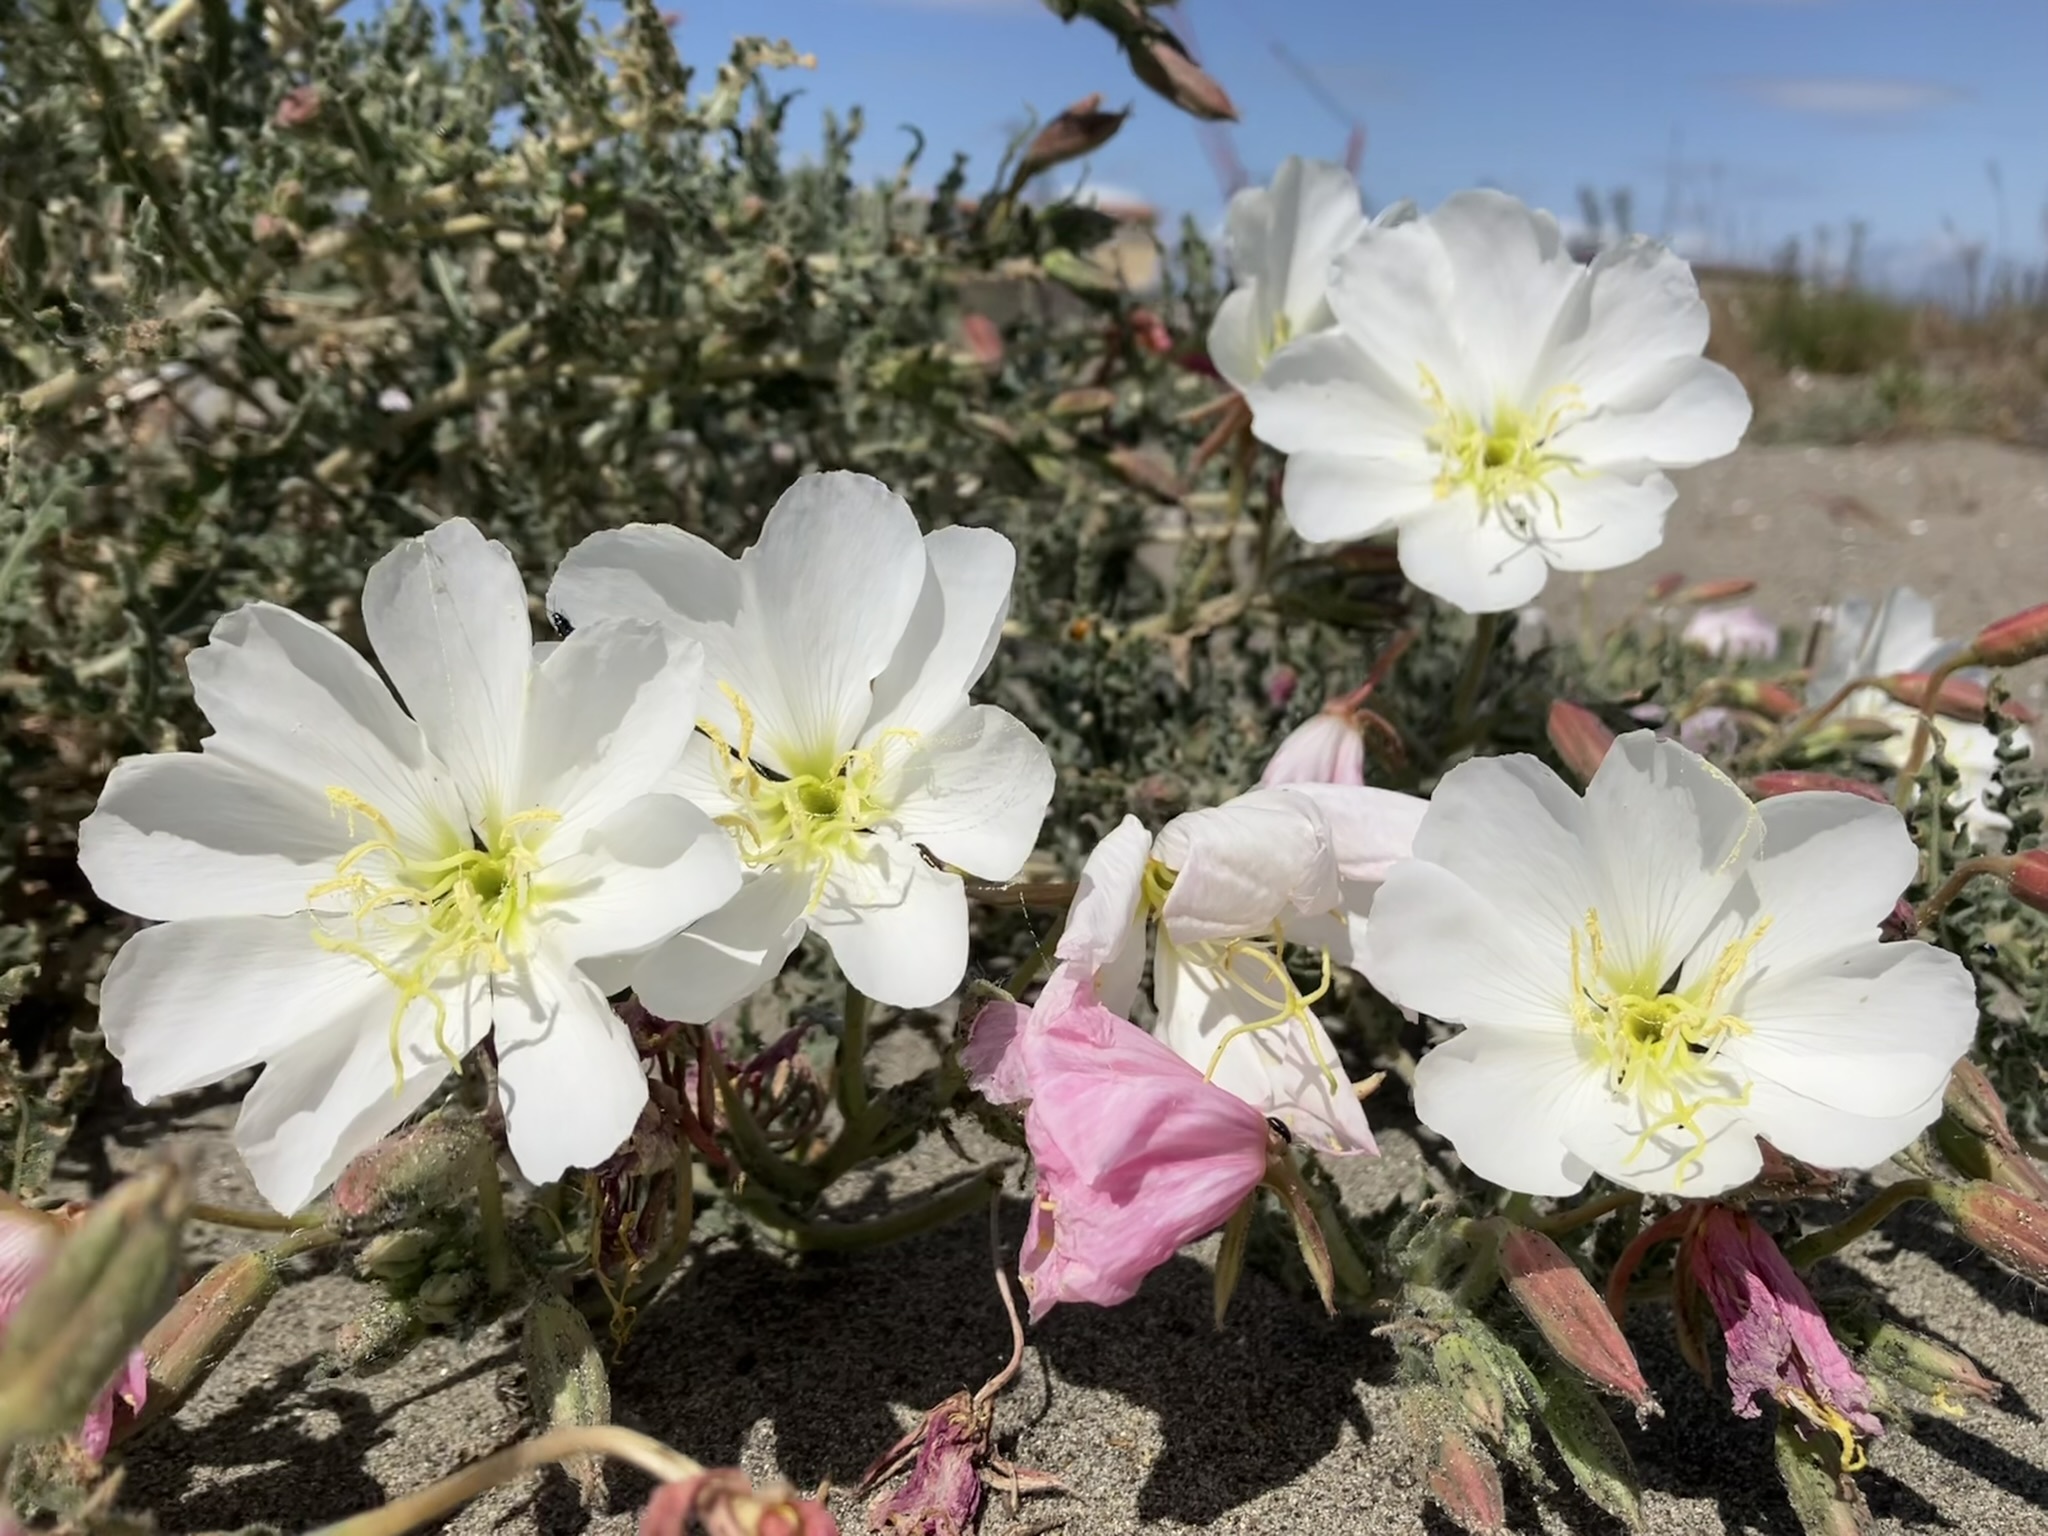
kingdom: Plantae
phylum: Tracheophyta
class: Magnoliopsida
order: Myrtales
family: Onagraceae
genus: Oenothera
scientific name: Oenothera deltoides
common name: Basket evening-primrose
